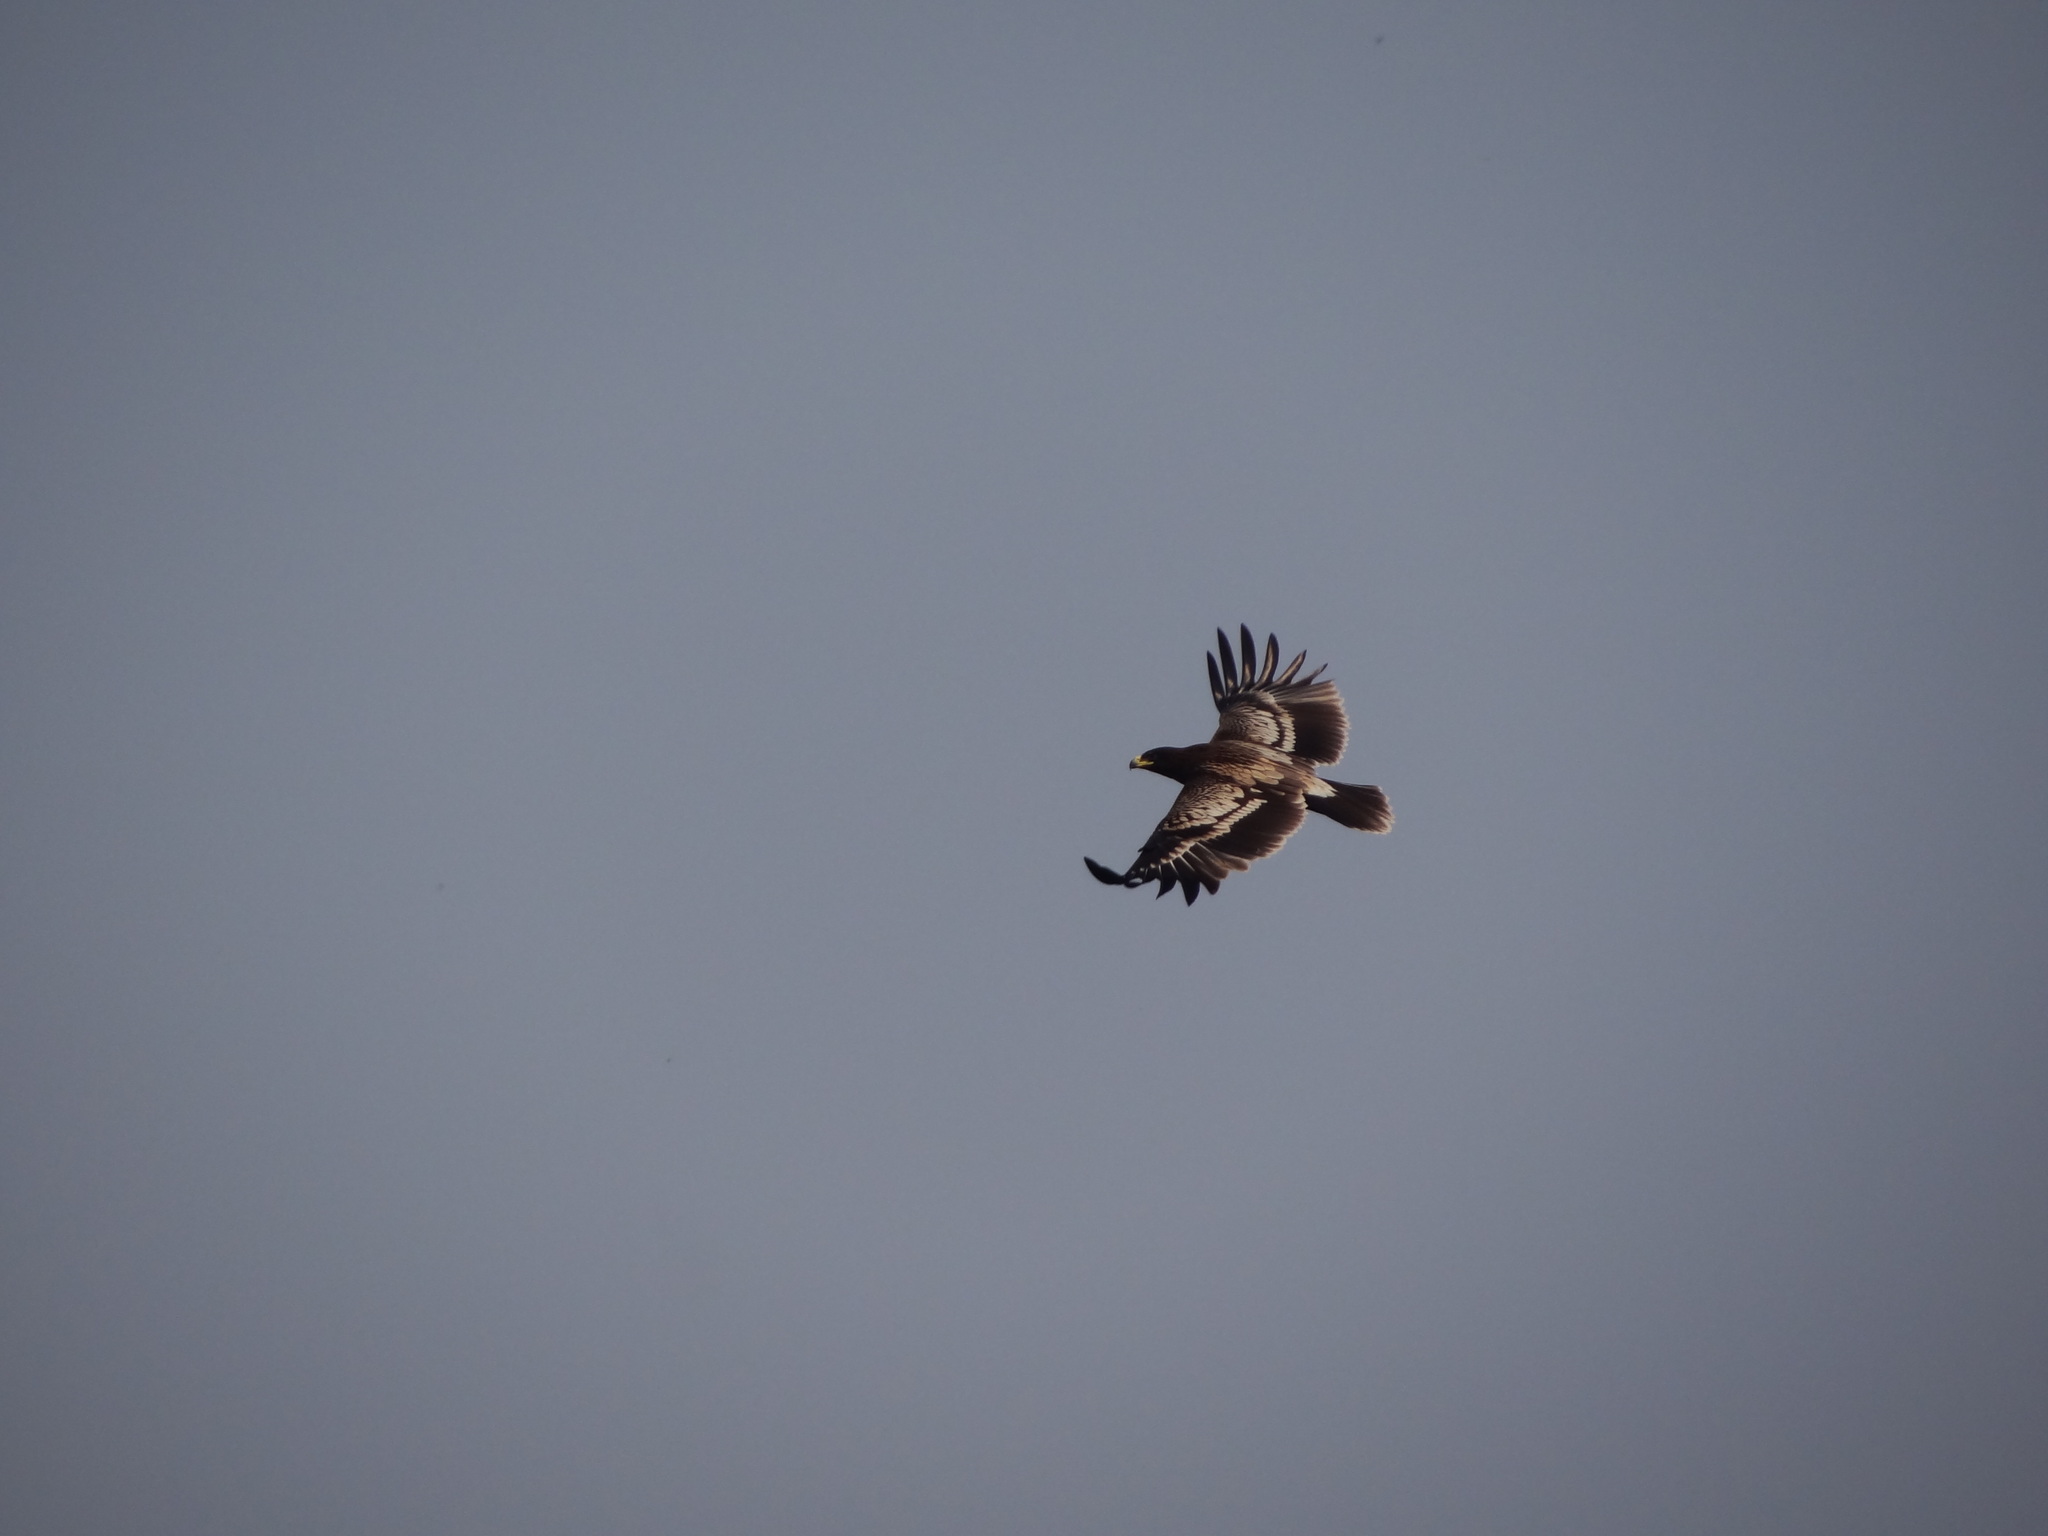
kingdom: Animalia
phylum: Chordata
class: Aves
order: Accipitriformes
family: Accipitridae
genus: Aquila
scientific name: Aquila clanga
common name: Greater spotted eagle
